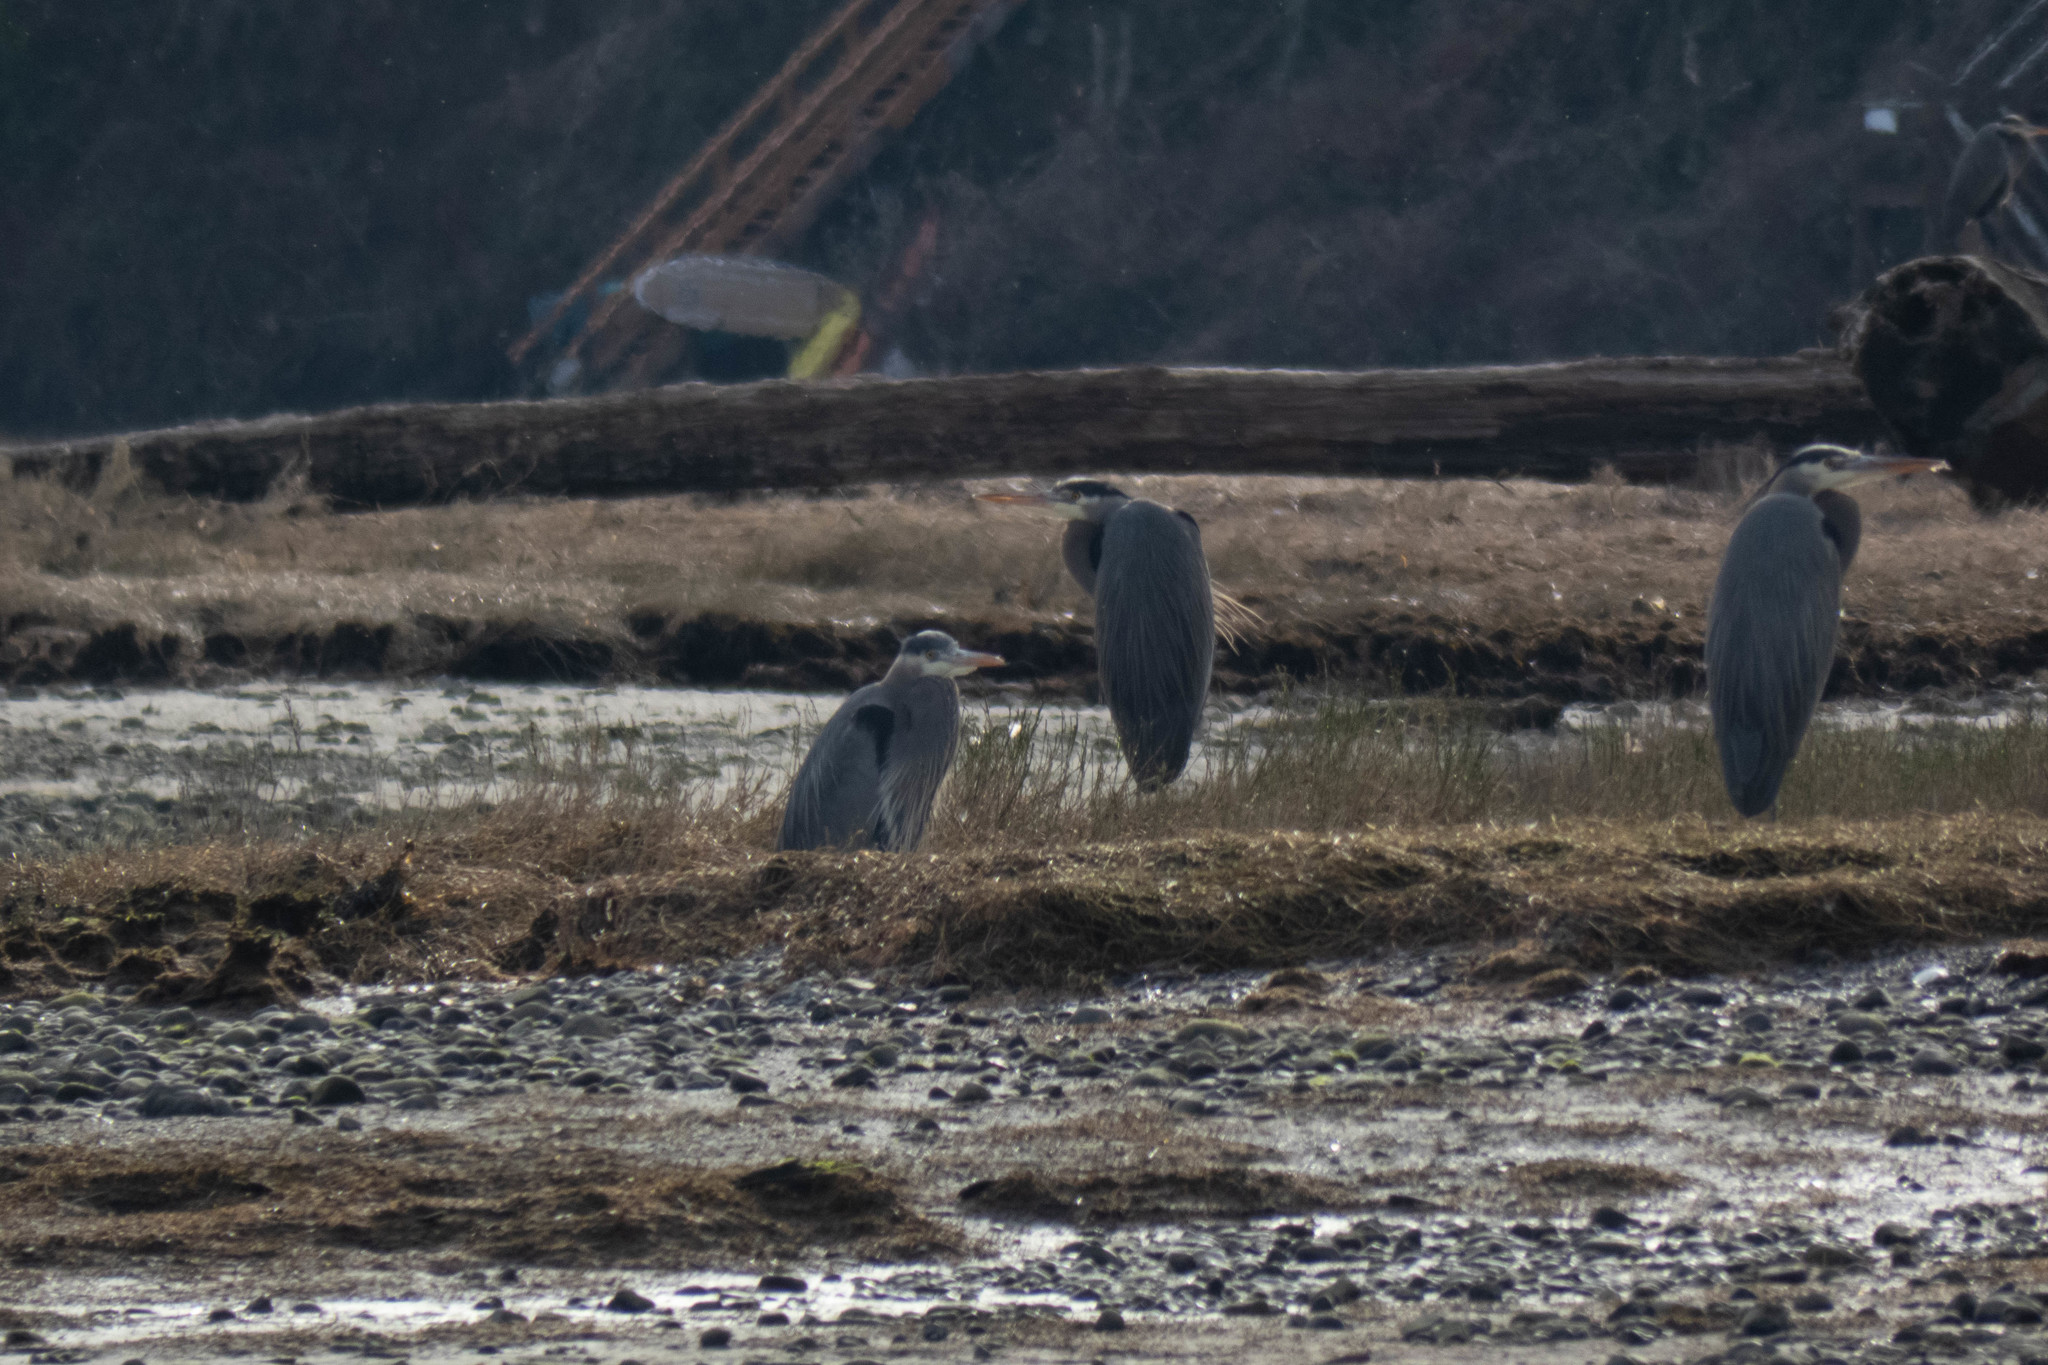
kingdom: Animalia
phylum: Chordata
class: Aves
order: Pelecaniformes
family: Ardeidae
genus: Ardea
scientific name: Ardea herodias
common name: Great blue heron
